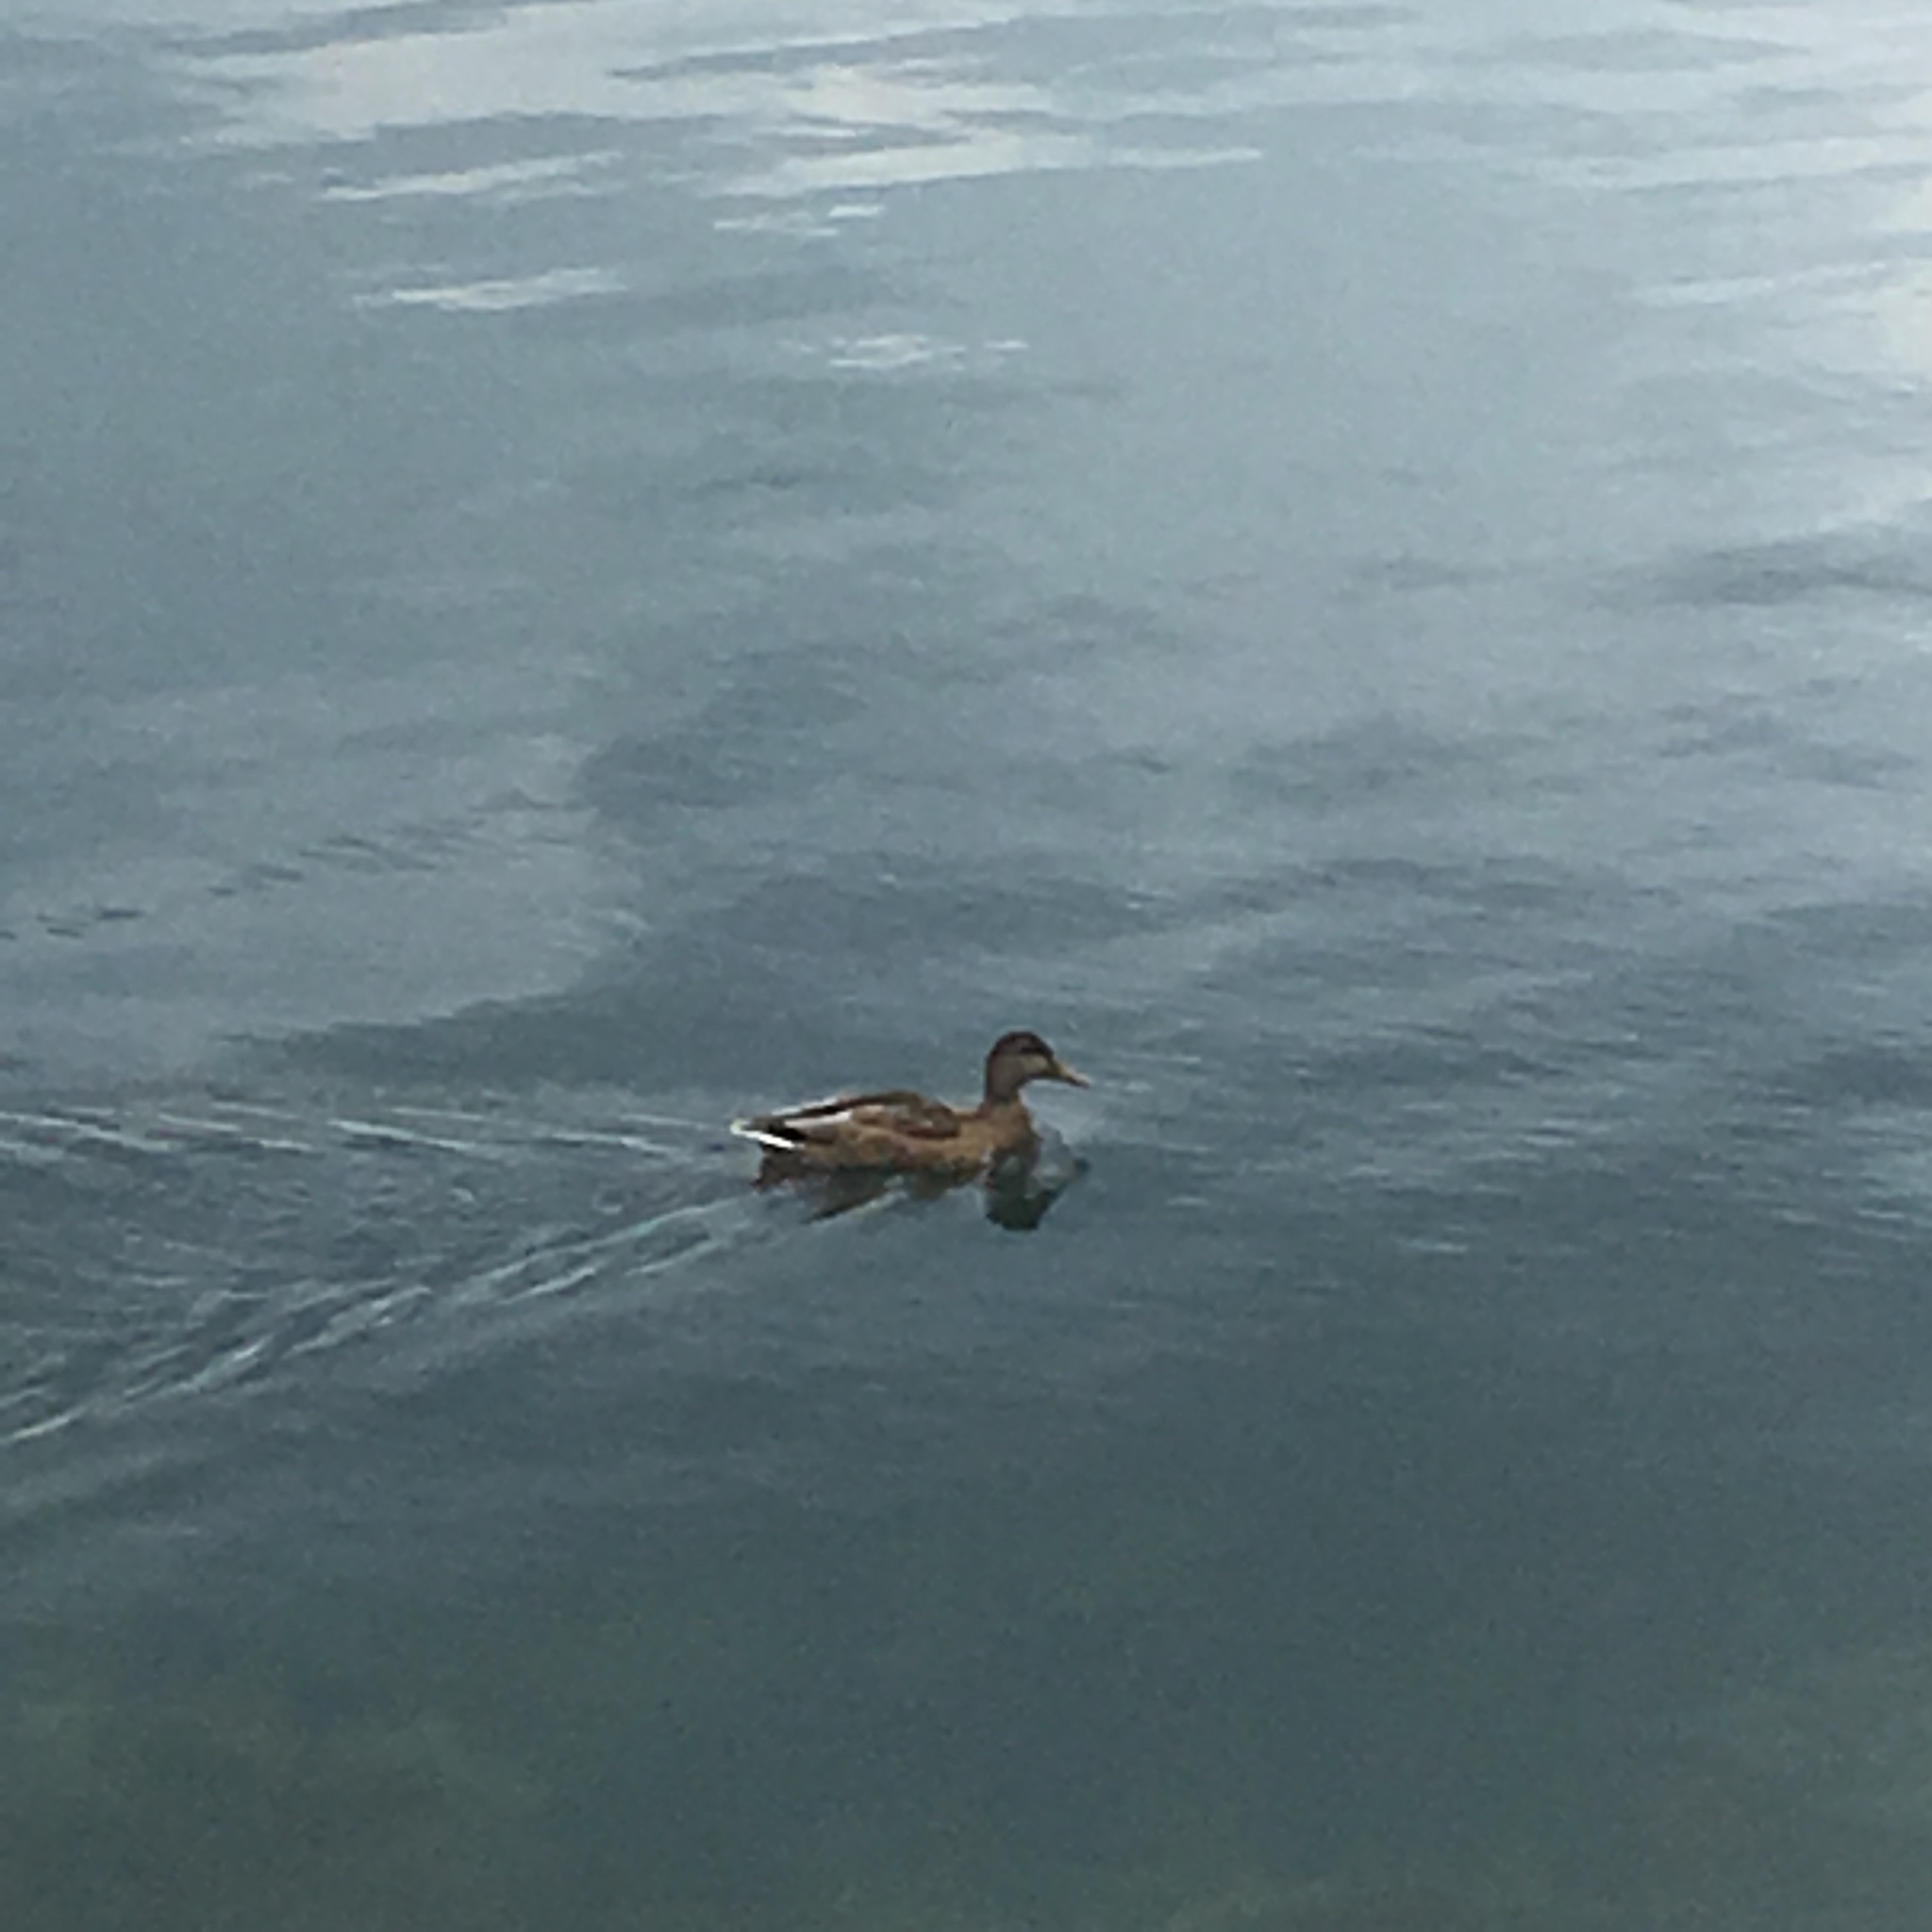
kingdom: Animalia
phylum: Chordata
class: Aves
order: Anseriformes
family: Anatidae
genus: Anas
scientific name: Anas platyrhynchos
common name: Mallard
